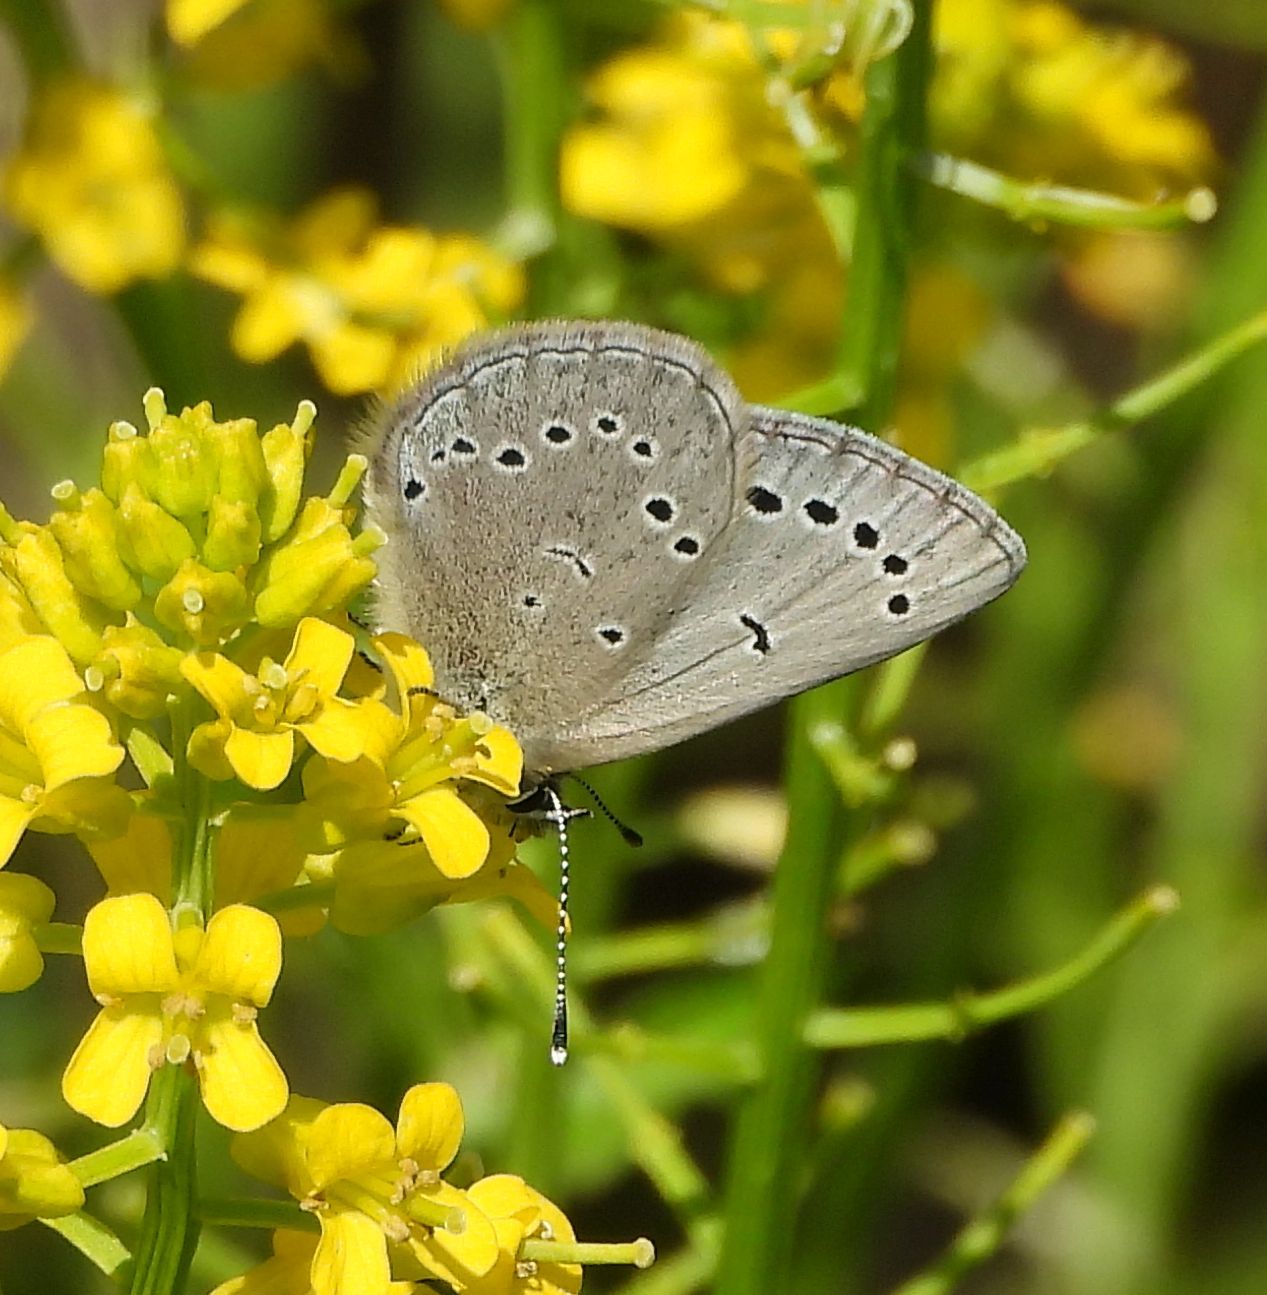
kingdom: Animalia
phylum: Arthropoda
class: Insecta
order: Lepidoptera
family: Lycaenidae
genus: Glaucopsyche
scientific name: Glaucopsyche lygdamus
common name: Silvery blue
